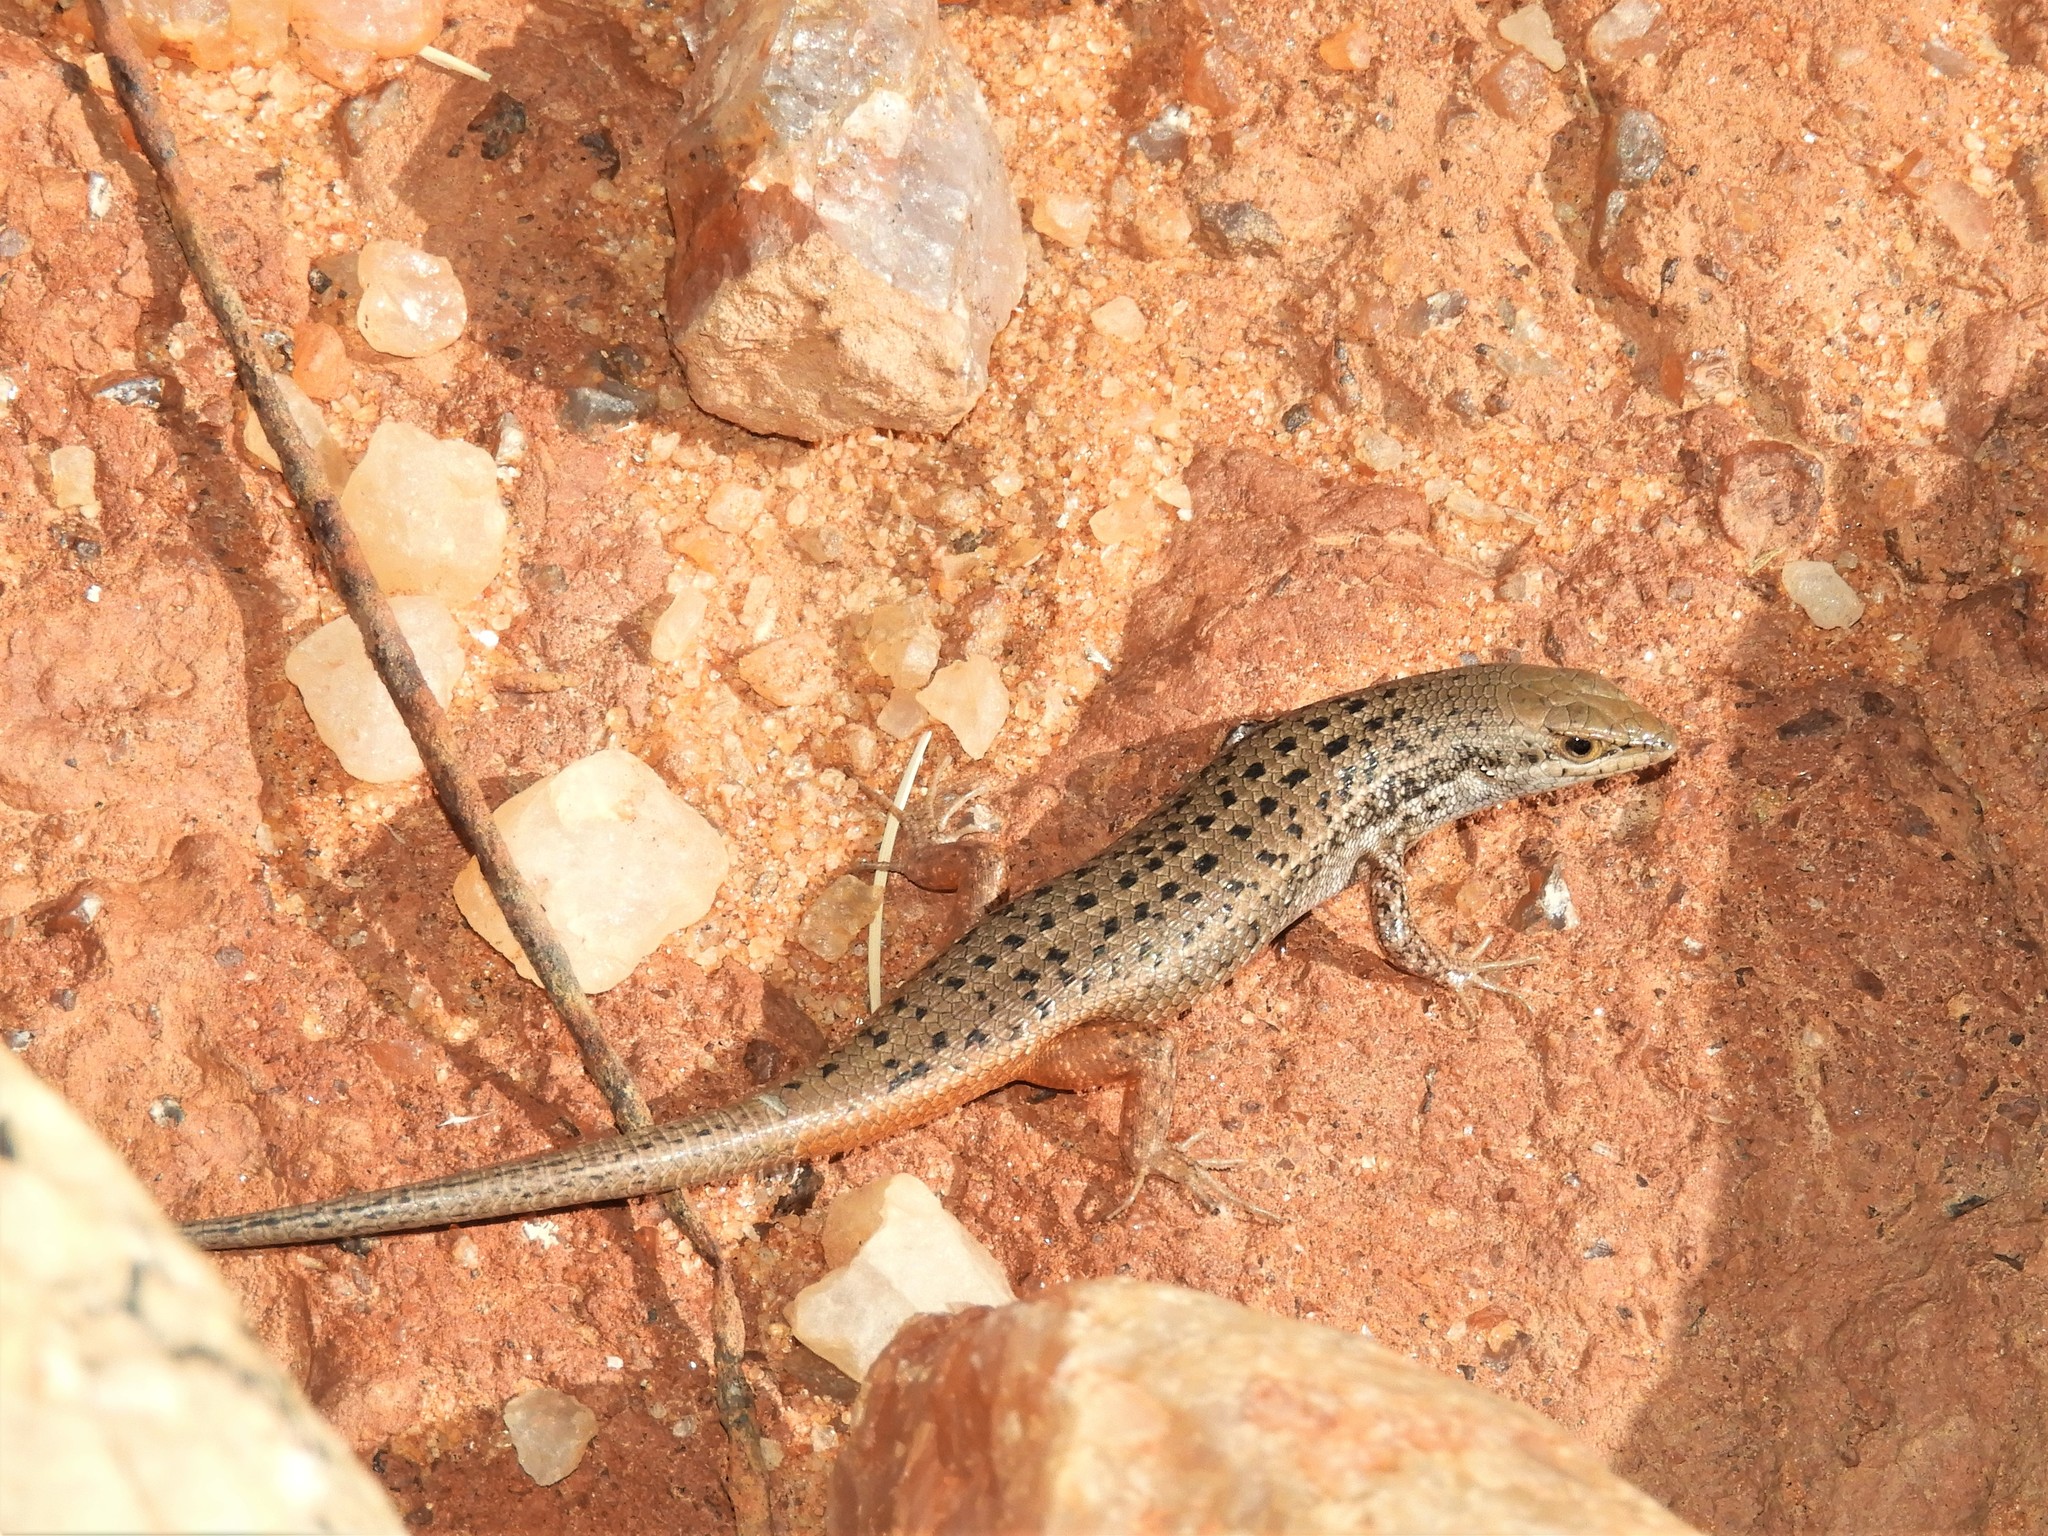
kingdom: Animalia
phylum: Chordata
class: Squamata
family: Scincidae
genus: Trachylepis
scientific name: Trachylepis variegata
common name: Variegated skink
